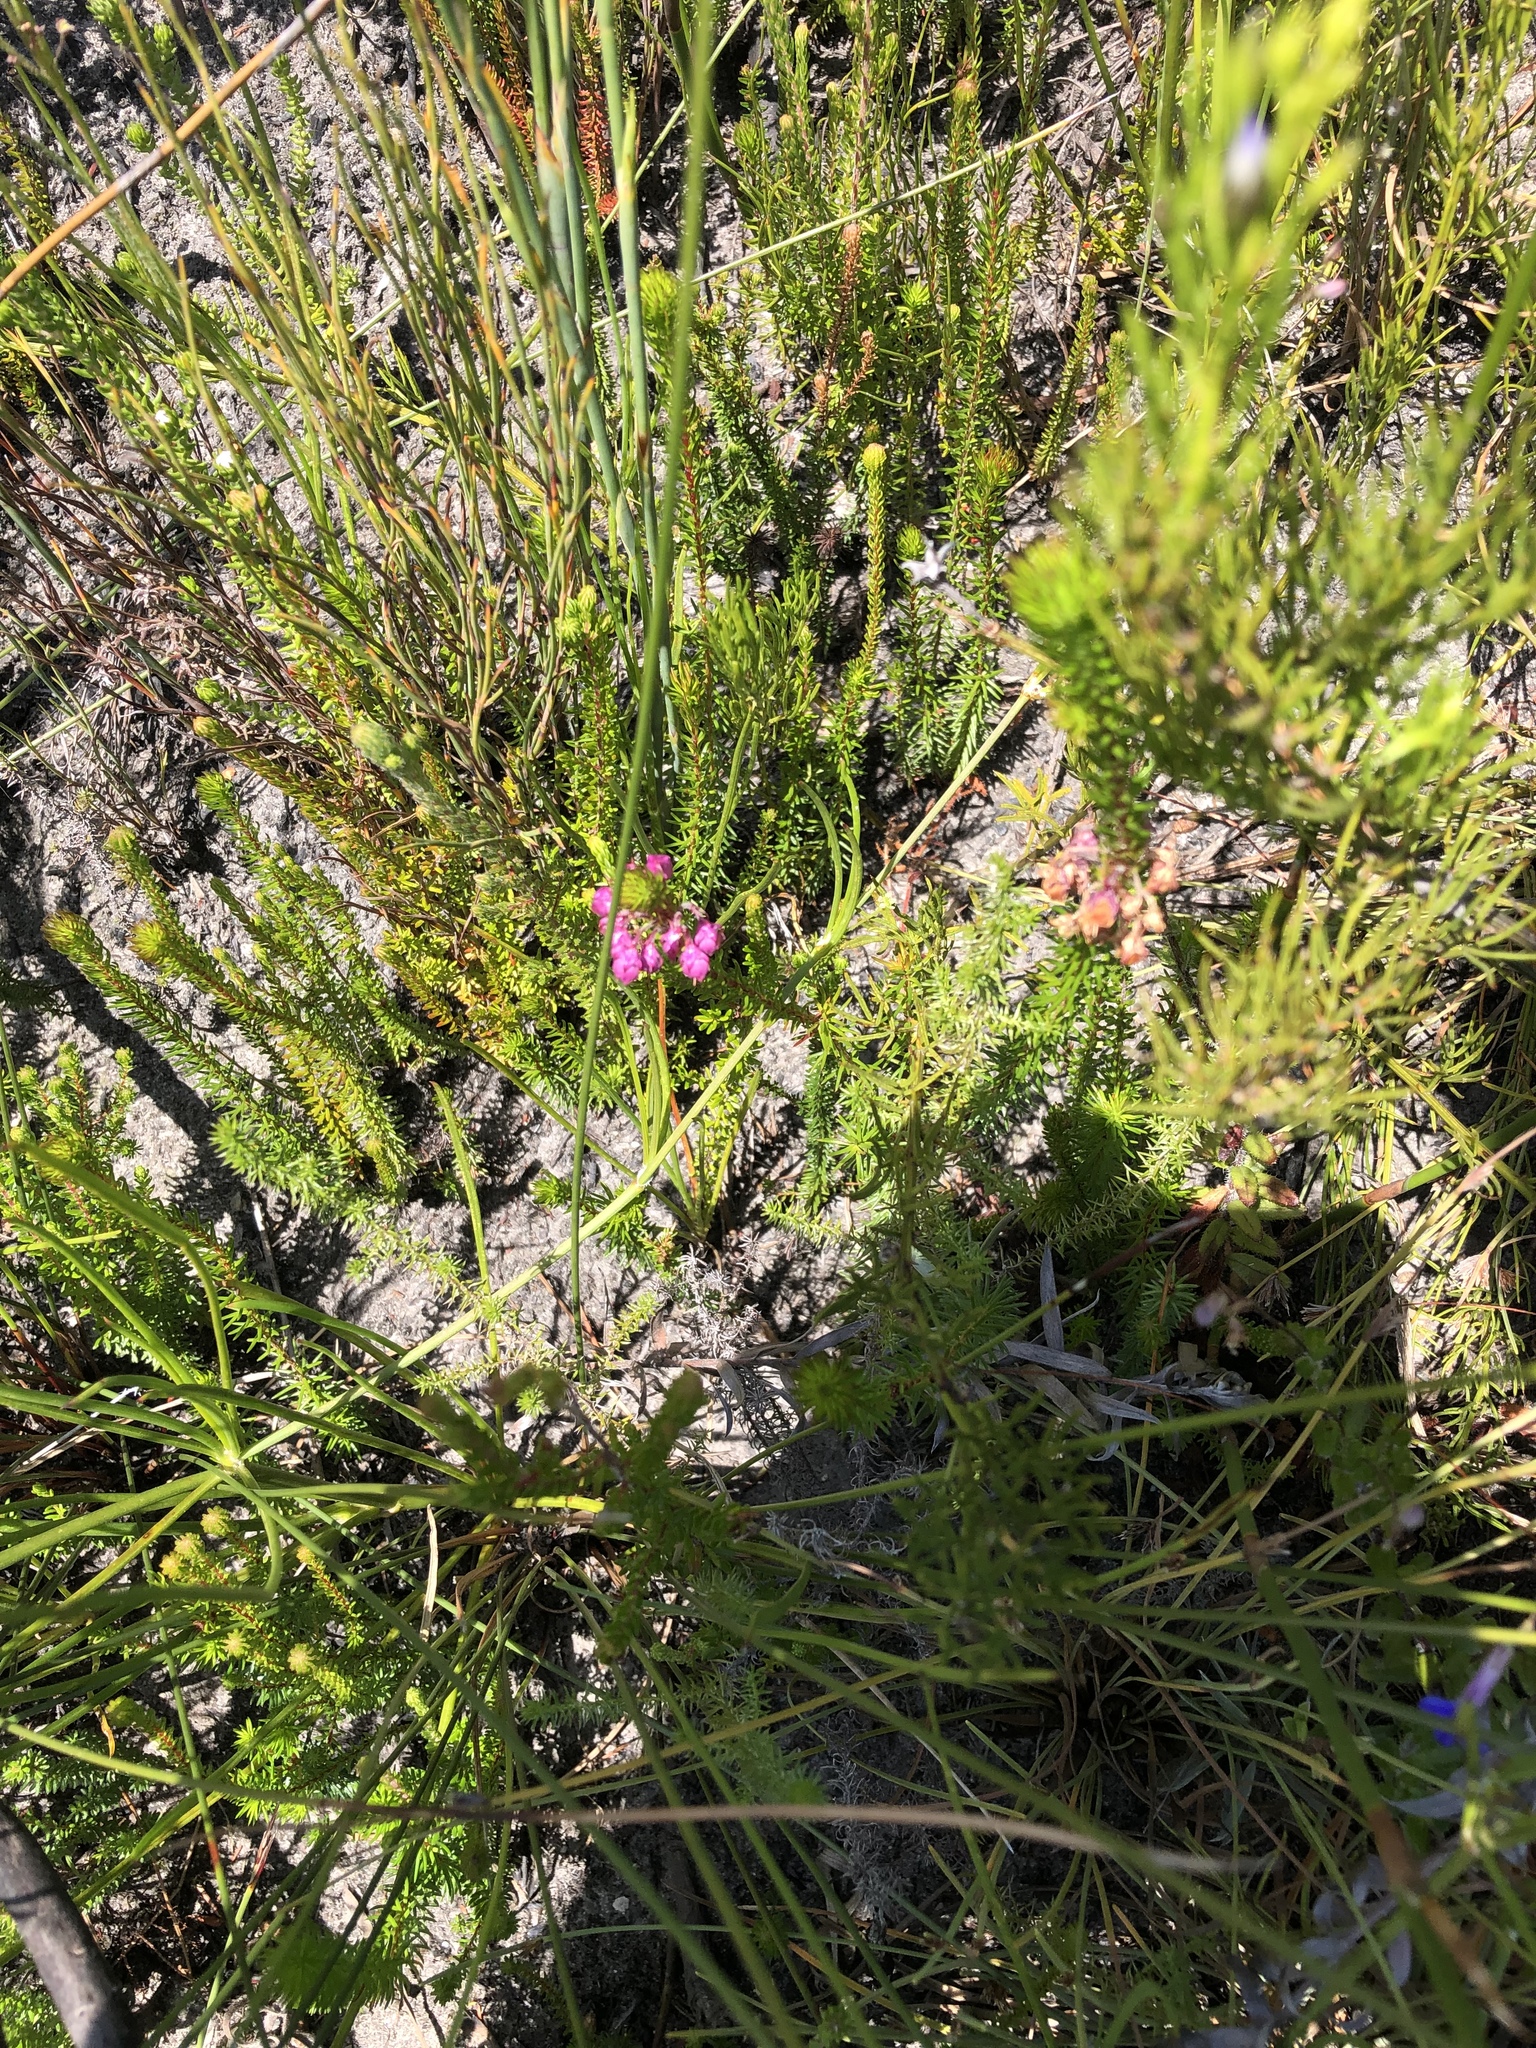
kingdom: Plantae
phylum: Tracheophyta
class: Magnoliopsida
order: Ericales
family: Ericaceae
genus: Erica
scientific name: Erica cubica
